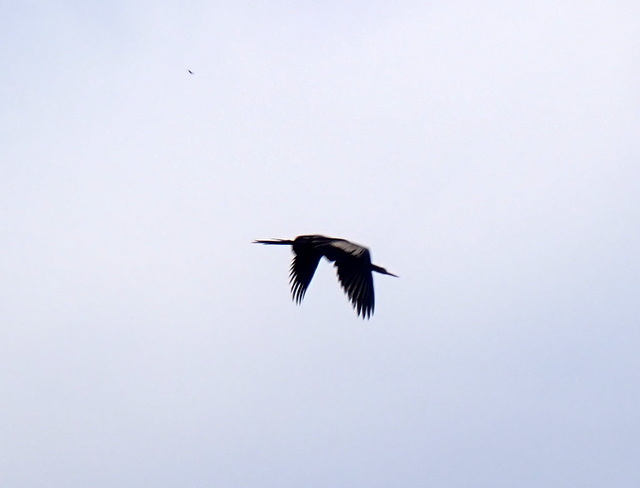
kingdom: Animalia
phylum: Chordata
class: Aves
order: Suliformes
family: Anhingidae
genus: Anhinga
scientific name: Anhinga anhinga
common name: Anhinga
